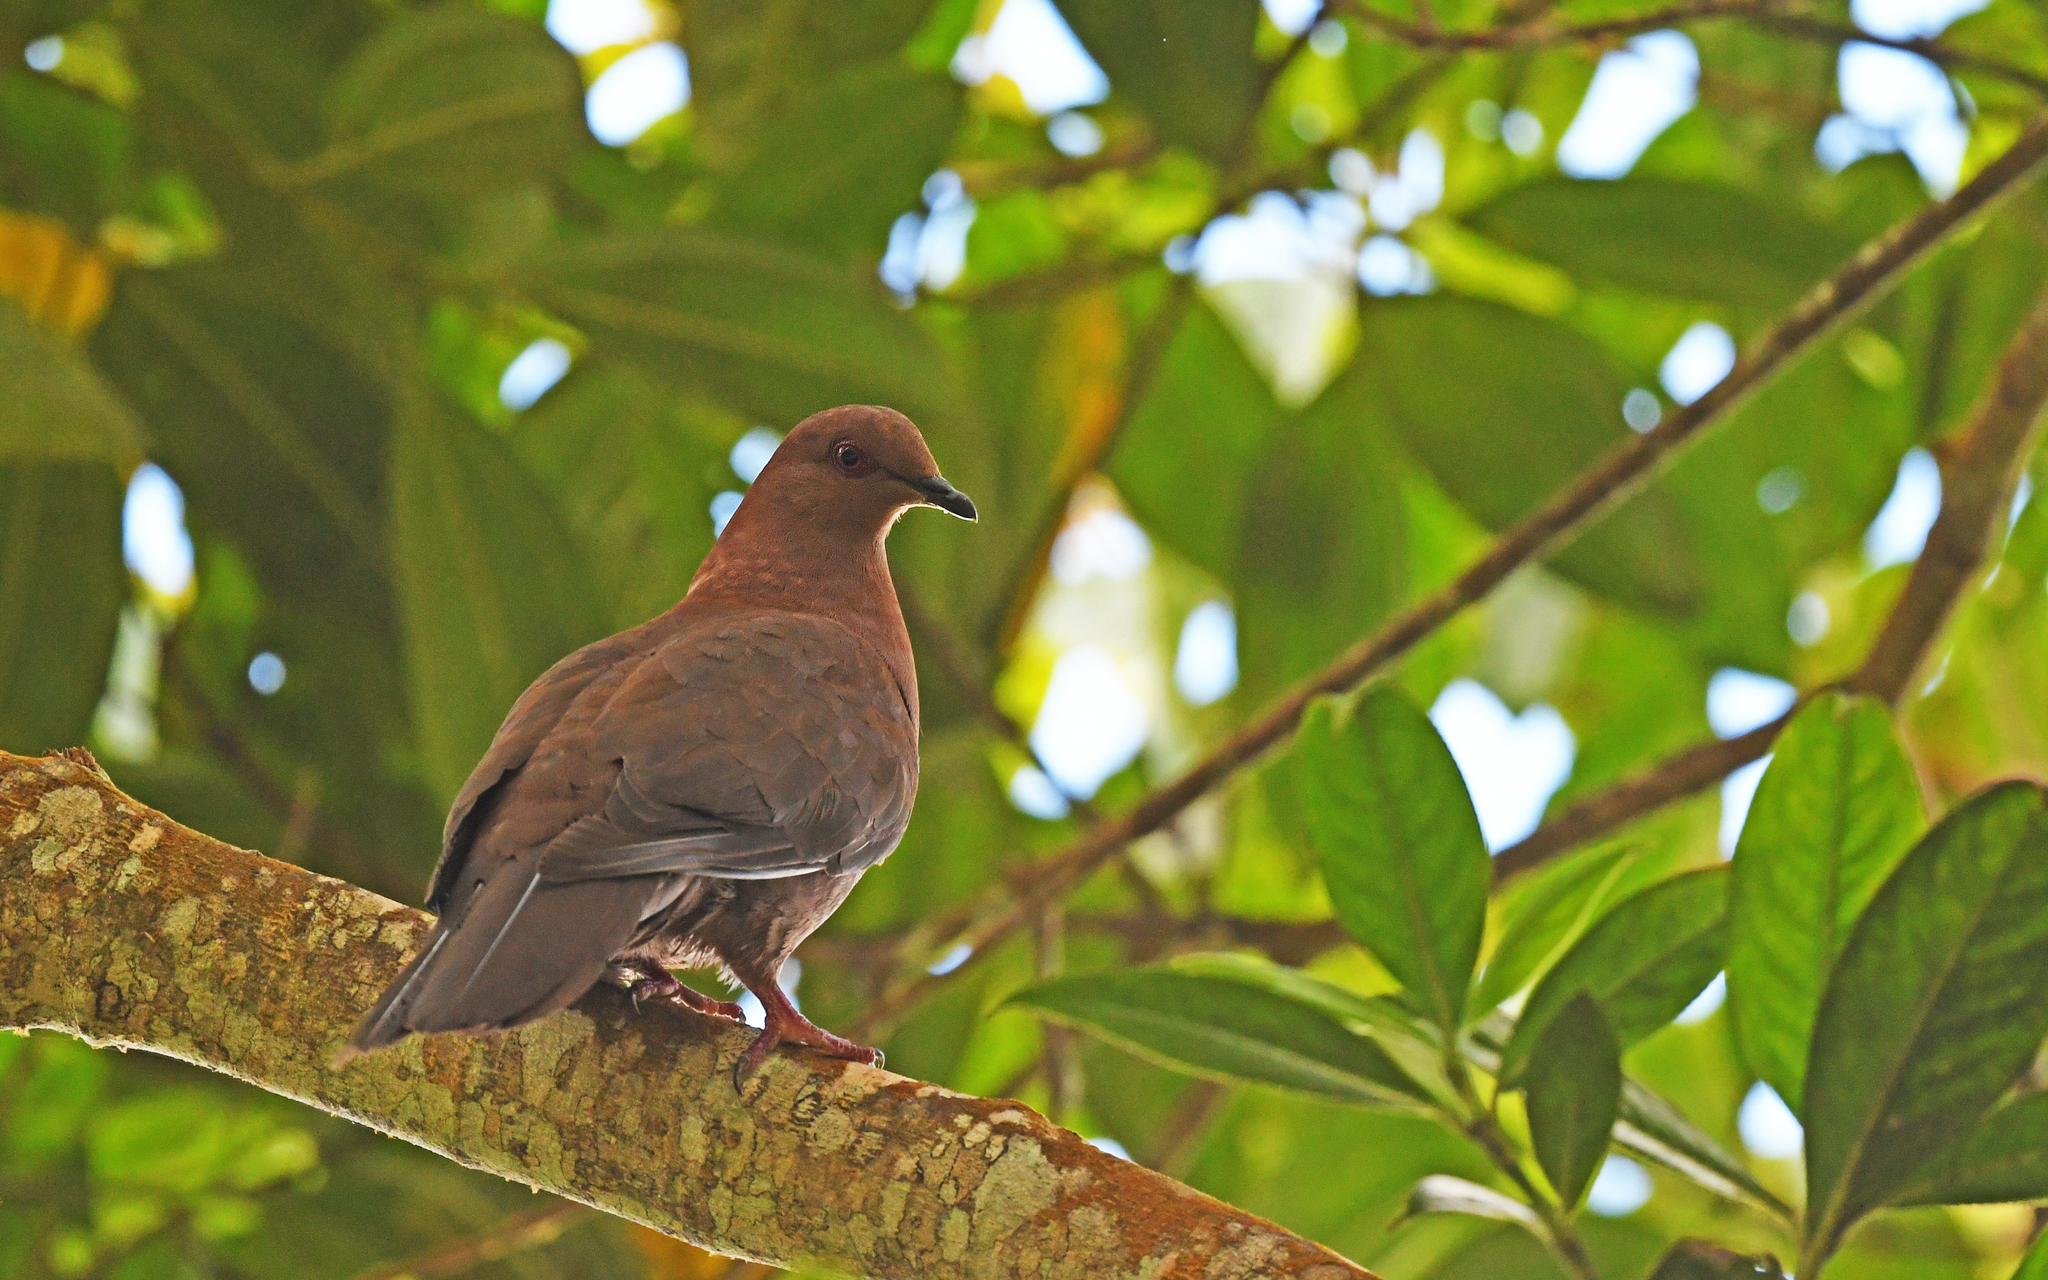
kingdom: Animalia
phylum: Chordata
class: Aves
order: Columbiformes
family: Columbidae
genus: Patagioenas
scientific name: Patagioenas subvinacea
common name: Ruddy pigeon
